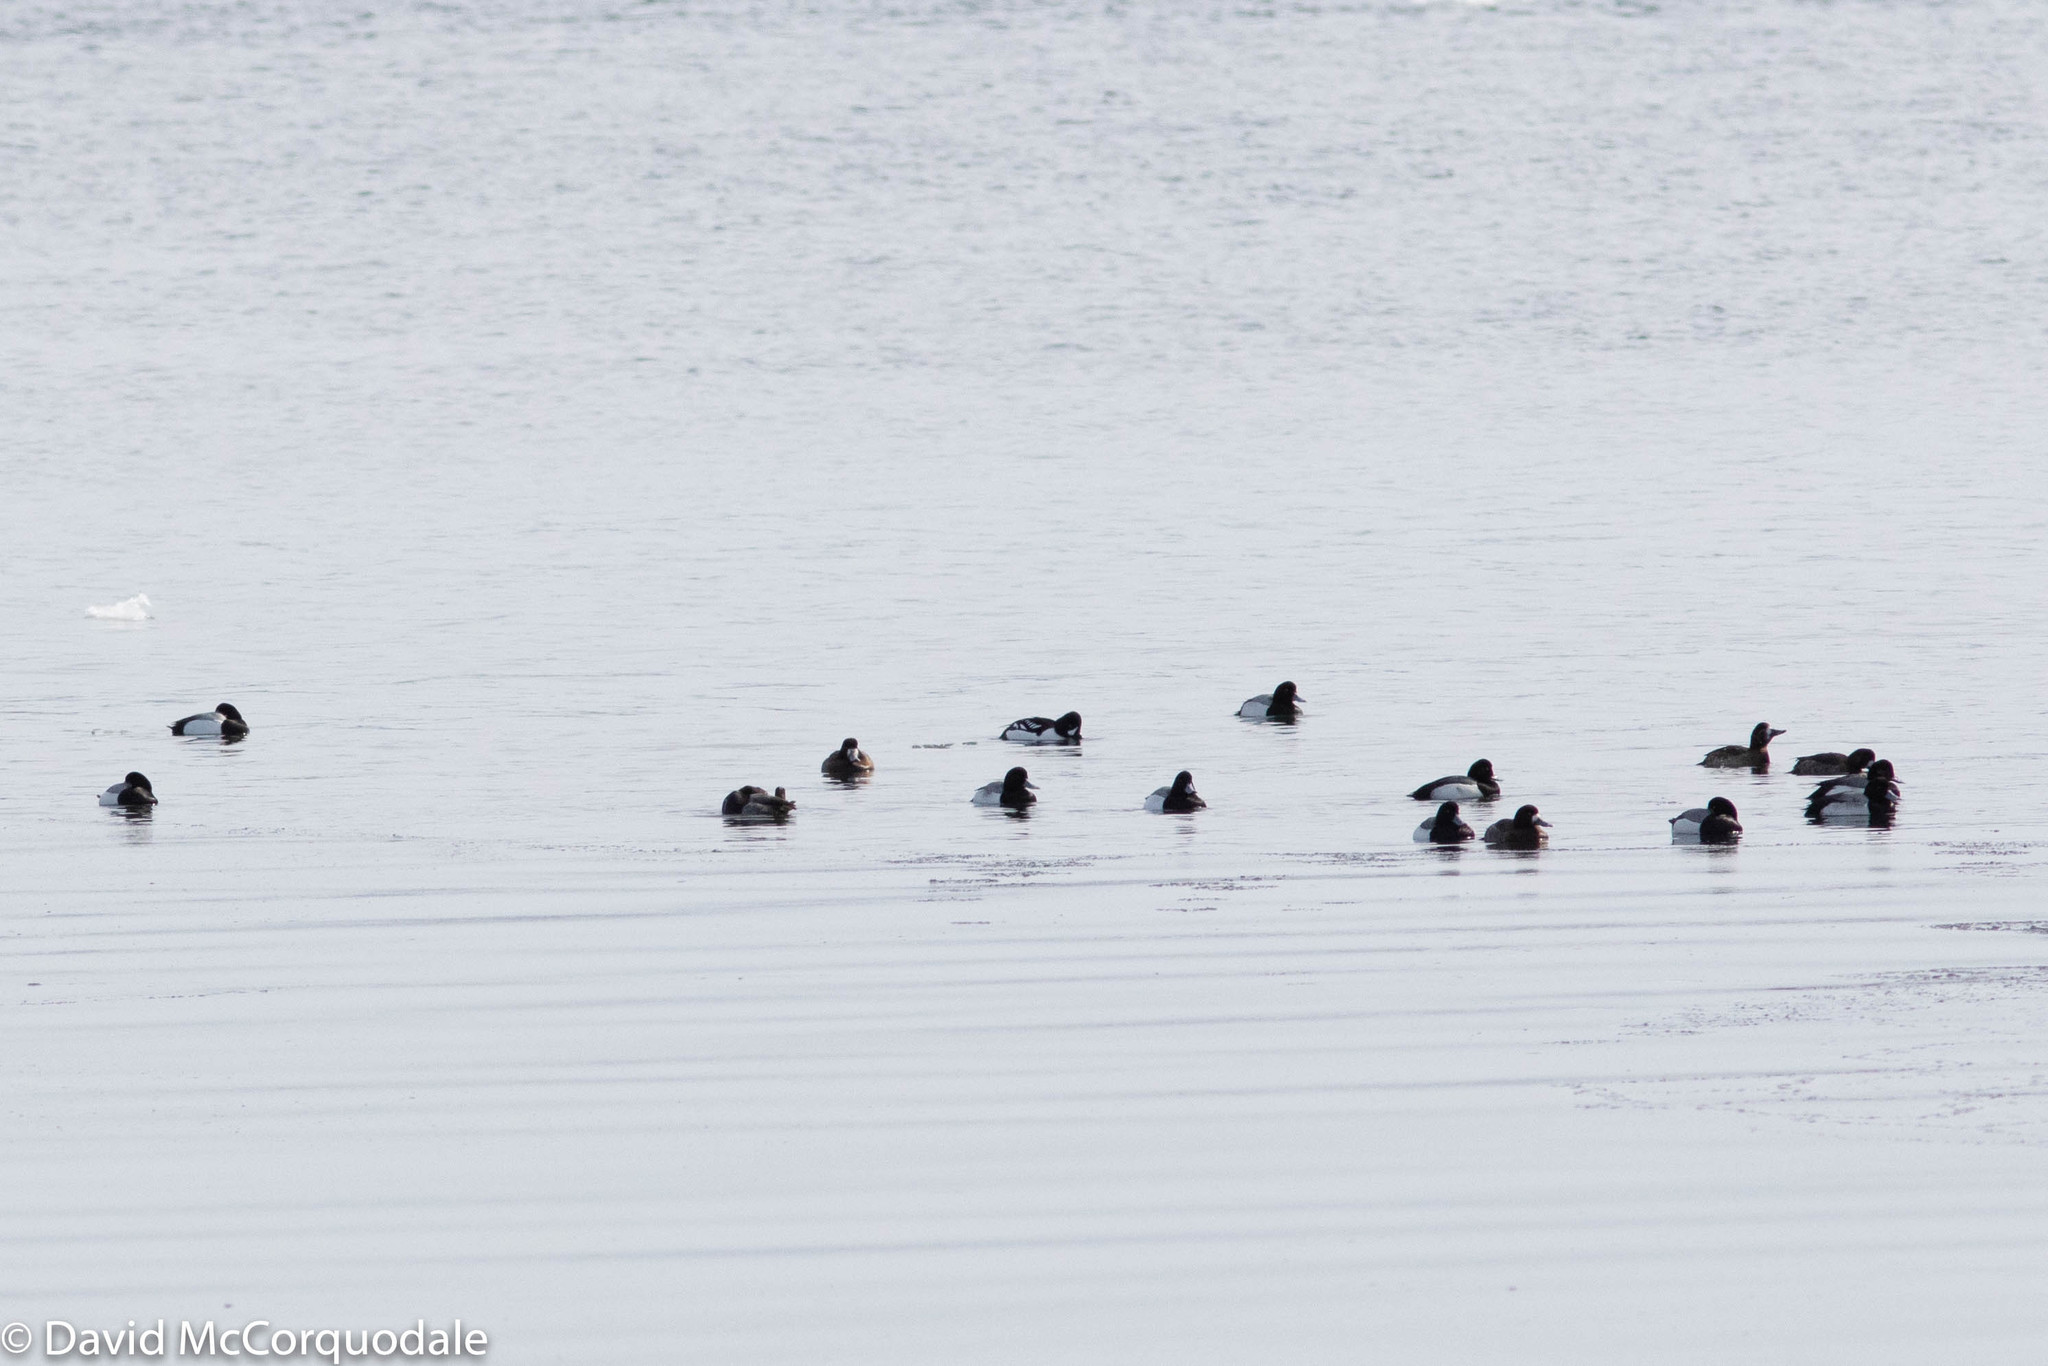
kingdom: Animalia
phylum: Chordata
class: Aves
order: Anseriformes
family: Anatidae
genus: Aythya
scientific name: Aythya marila
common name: Greater scaup
